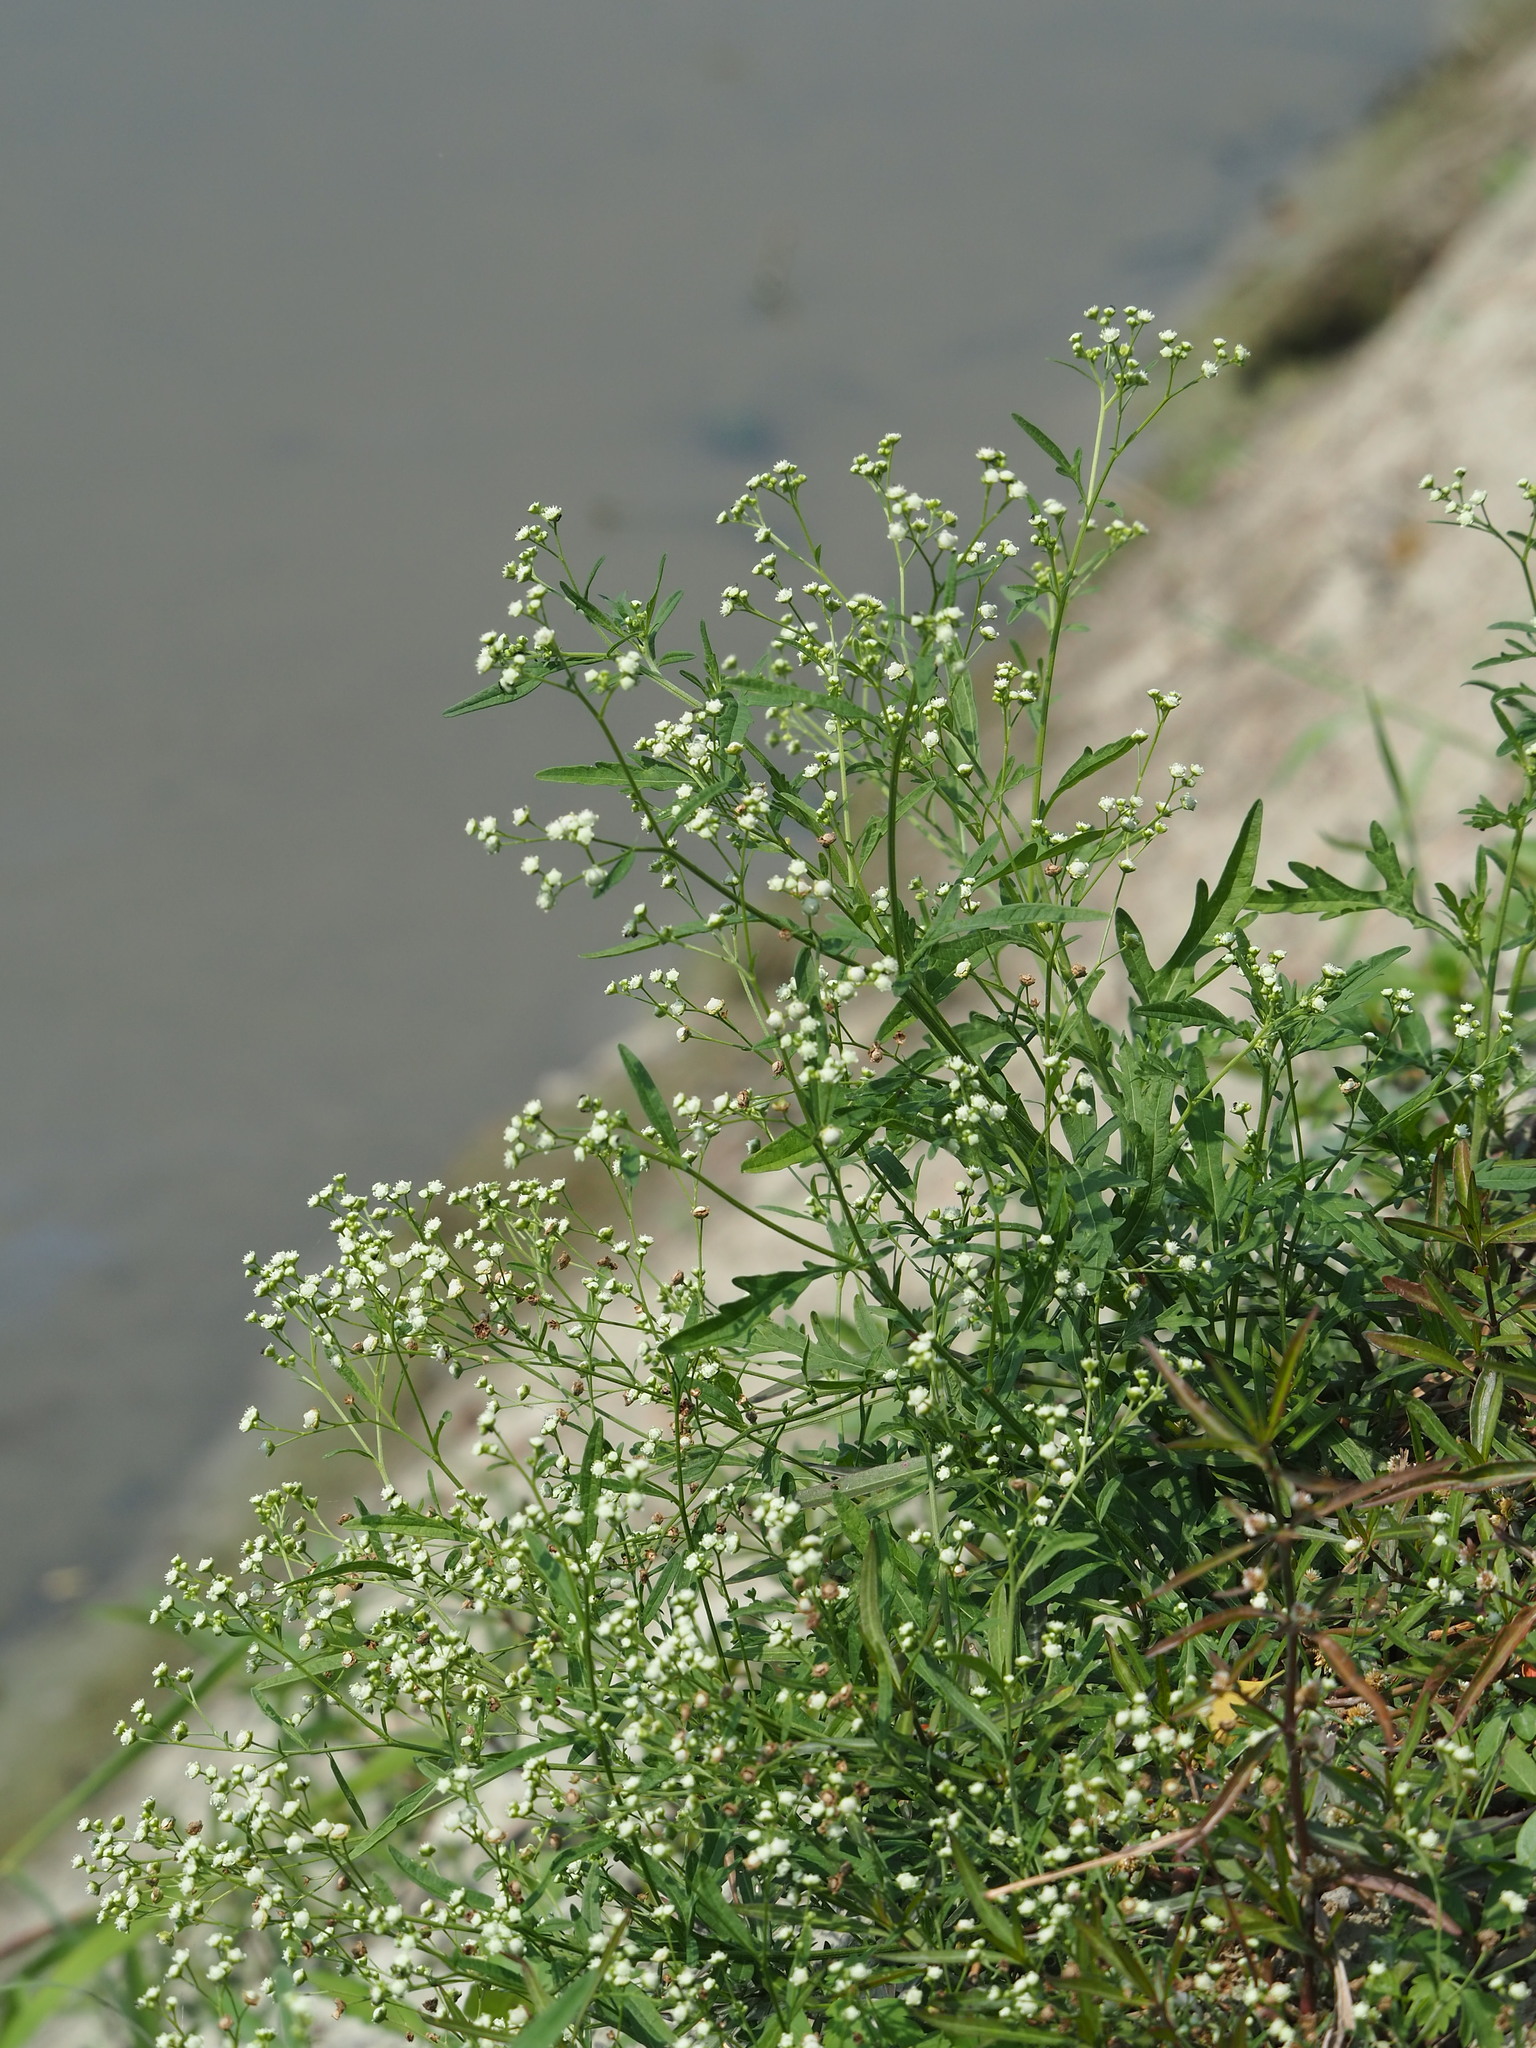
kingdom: Plantae
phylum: Tracheophyta
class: Magnoliopsida
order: Asterales
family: Asteraceae
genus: Parthenium
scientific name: Parthenium hysterophorus
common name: Santa maria feverfew
